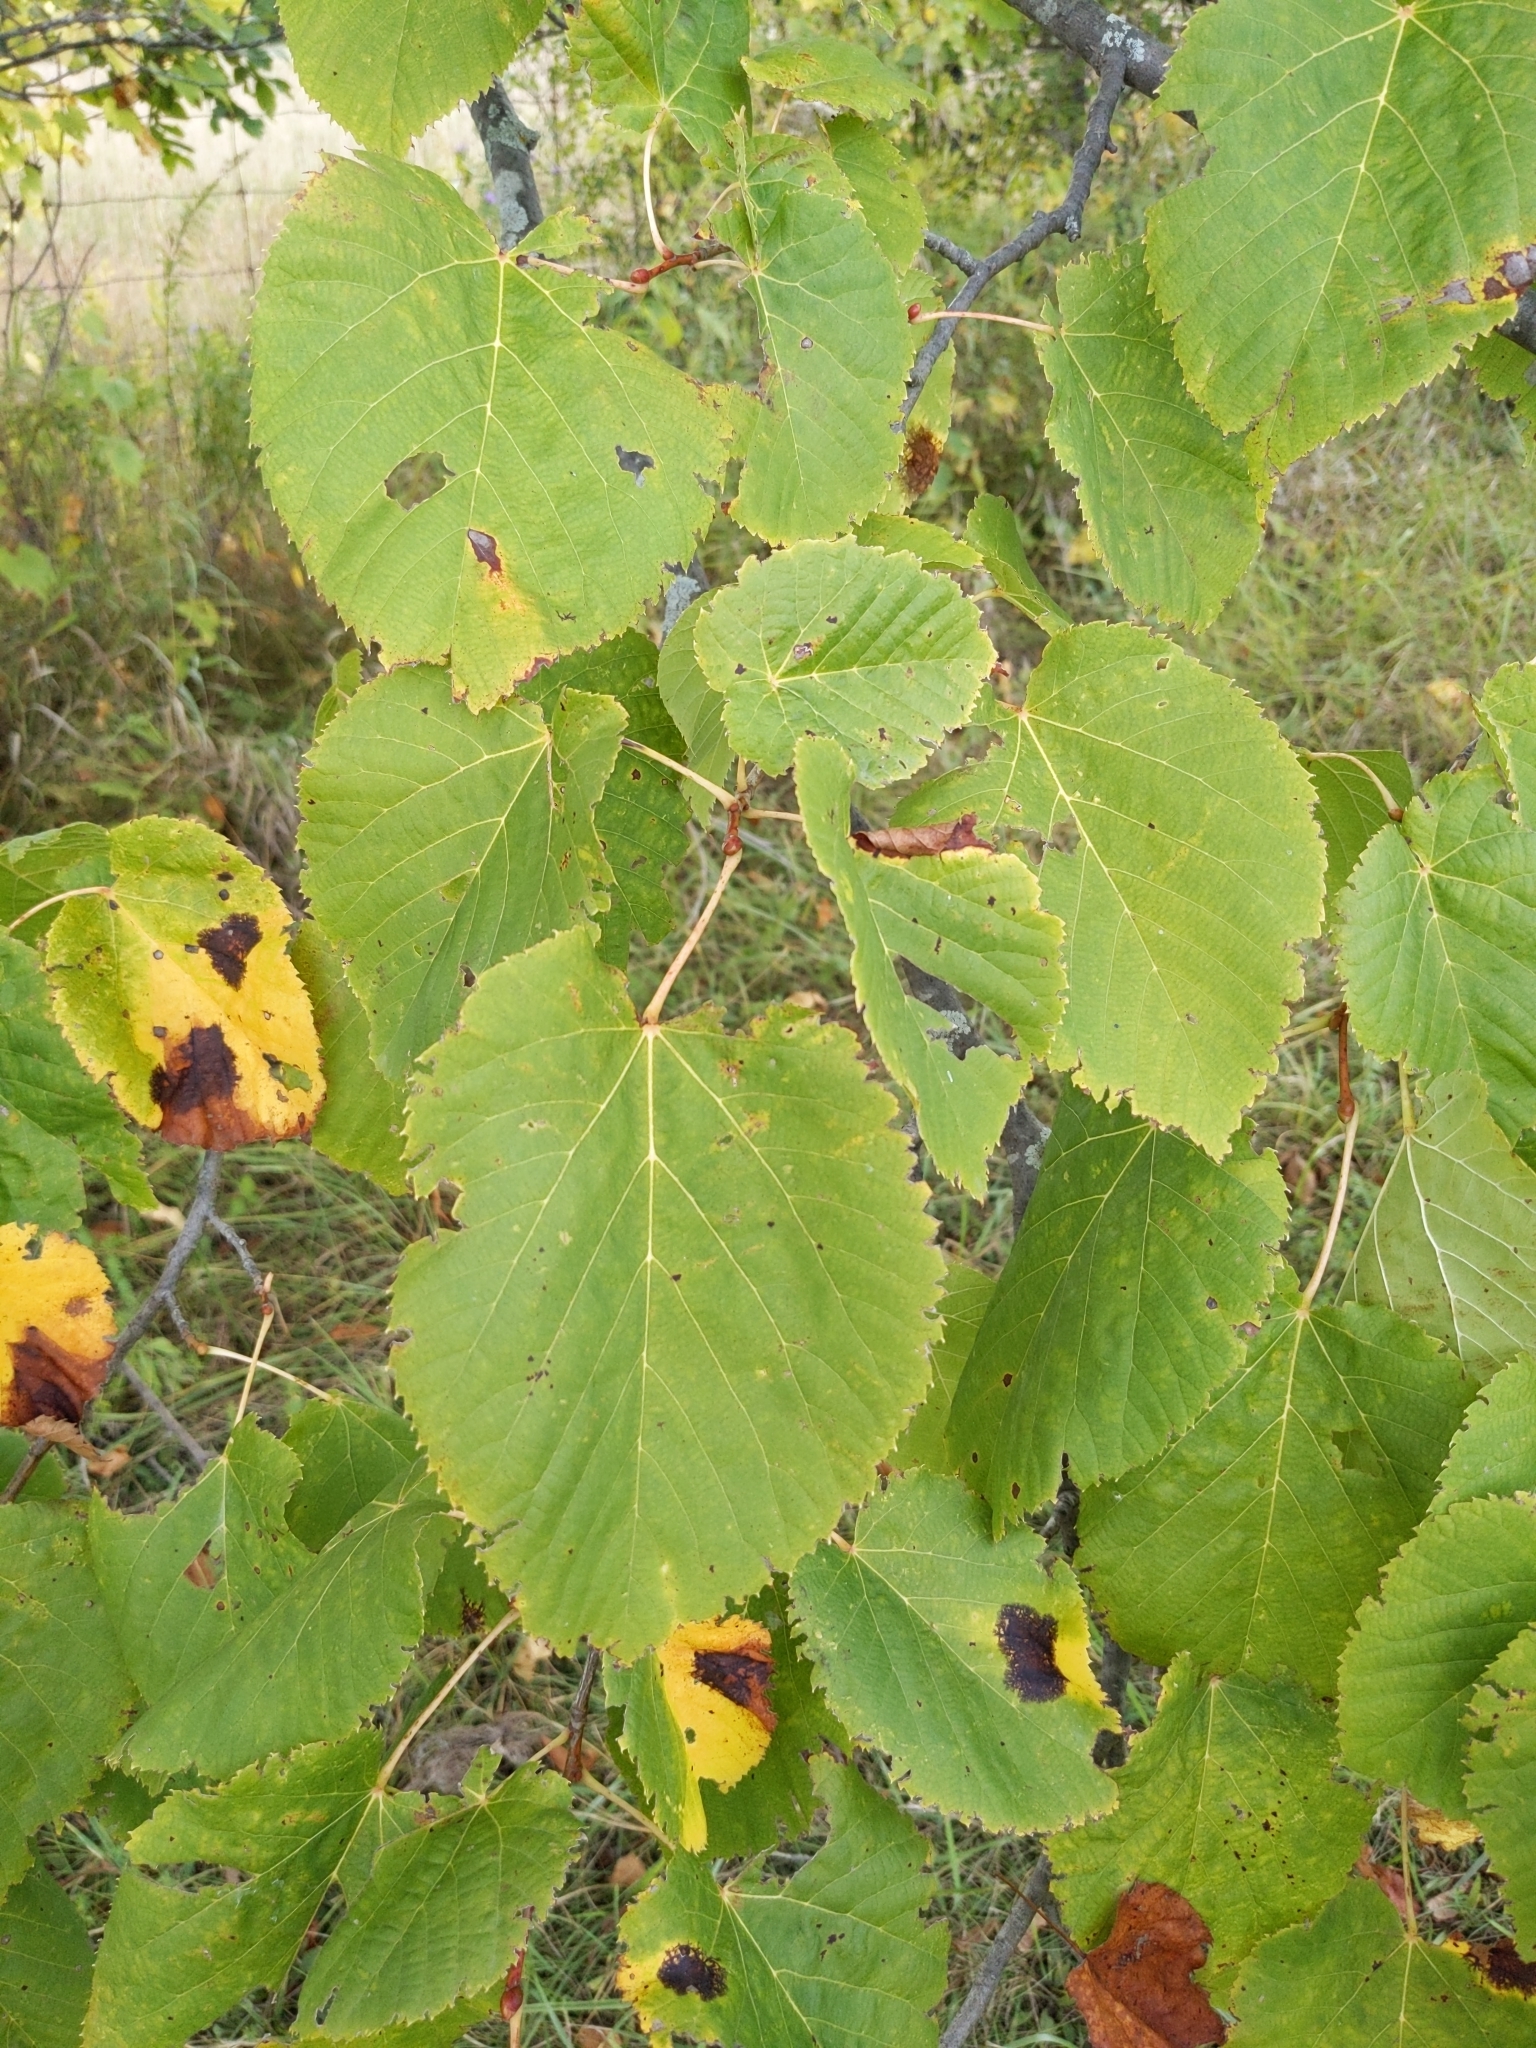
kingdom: Plantae
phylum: Tracheophyta
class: Magnoliopsida
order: Malvales
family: Malvaceae
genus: Tilia
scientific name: Tilia americana
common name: Basswood
